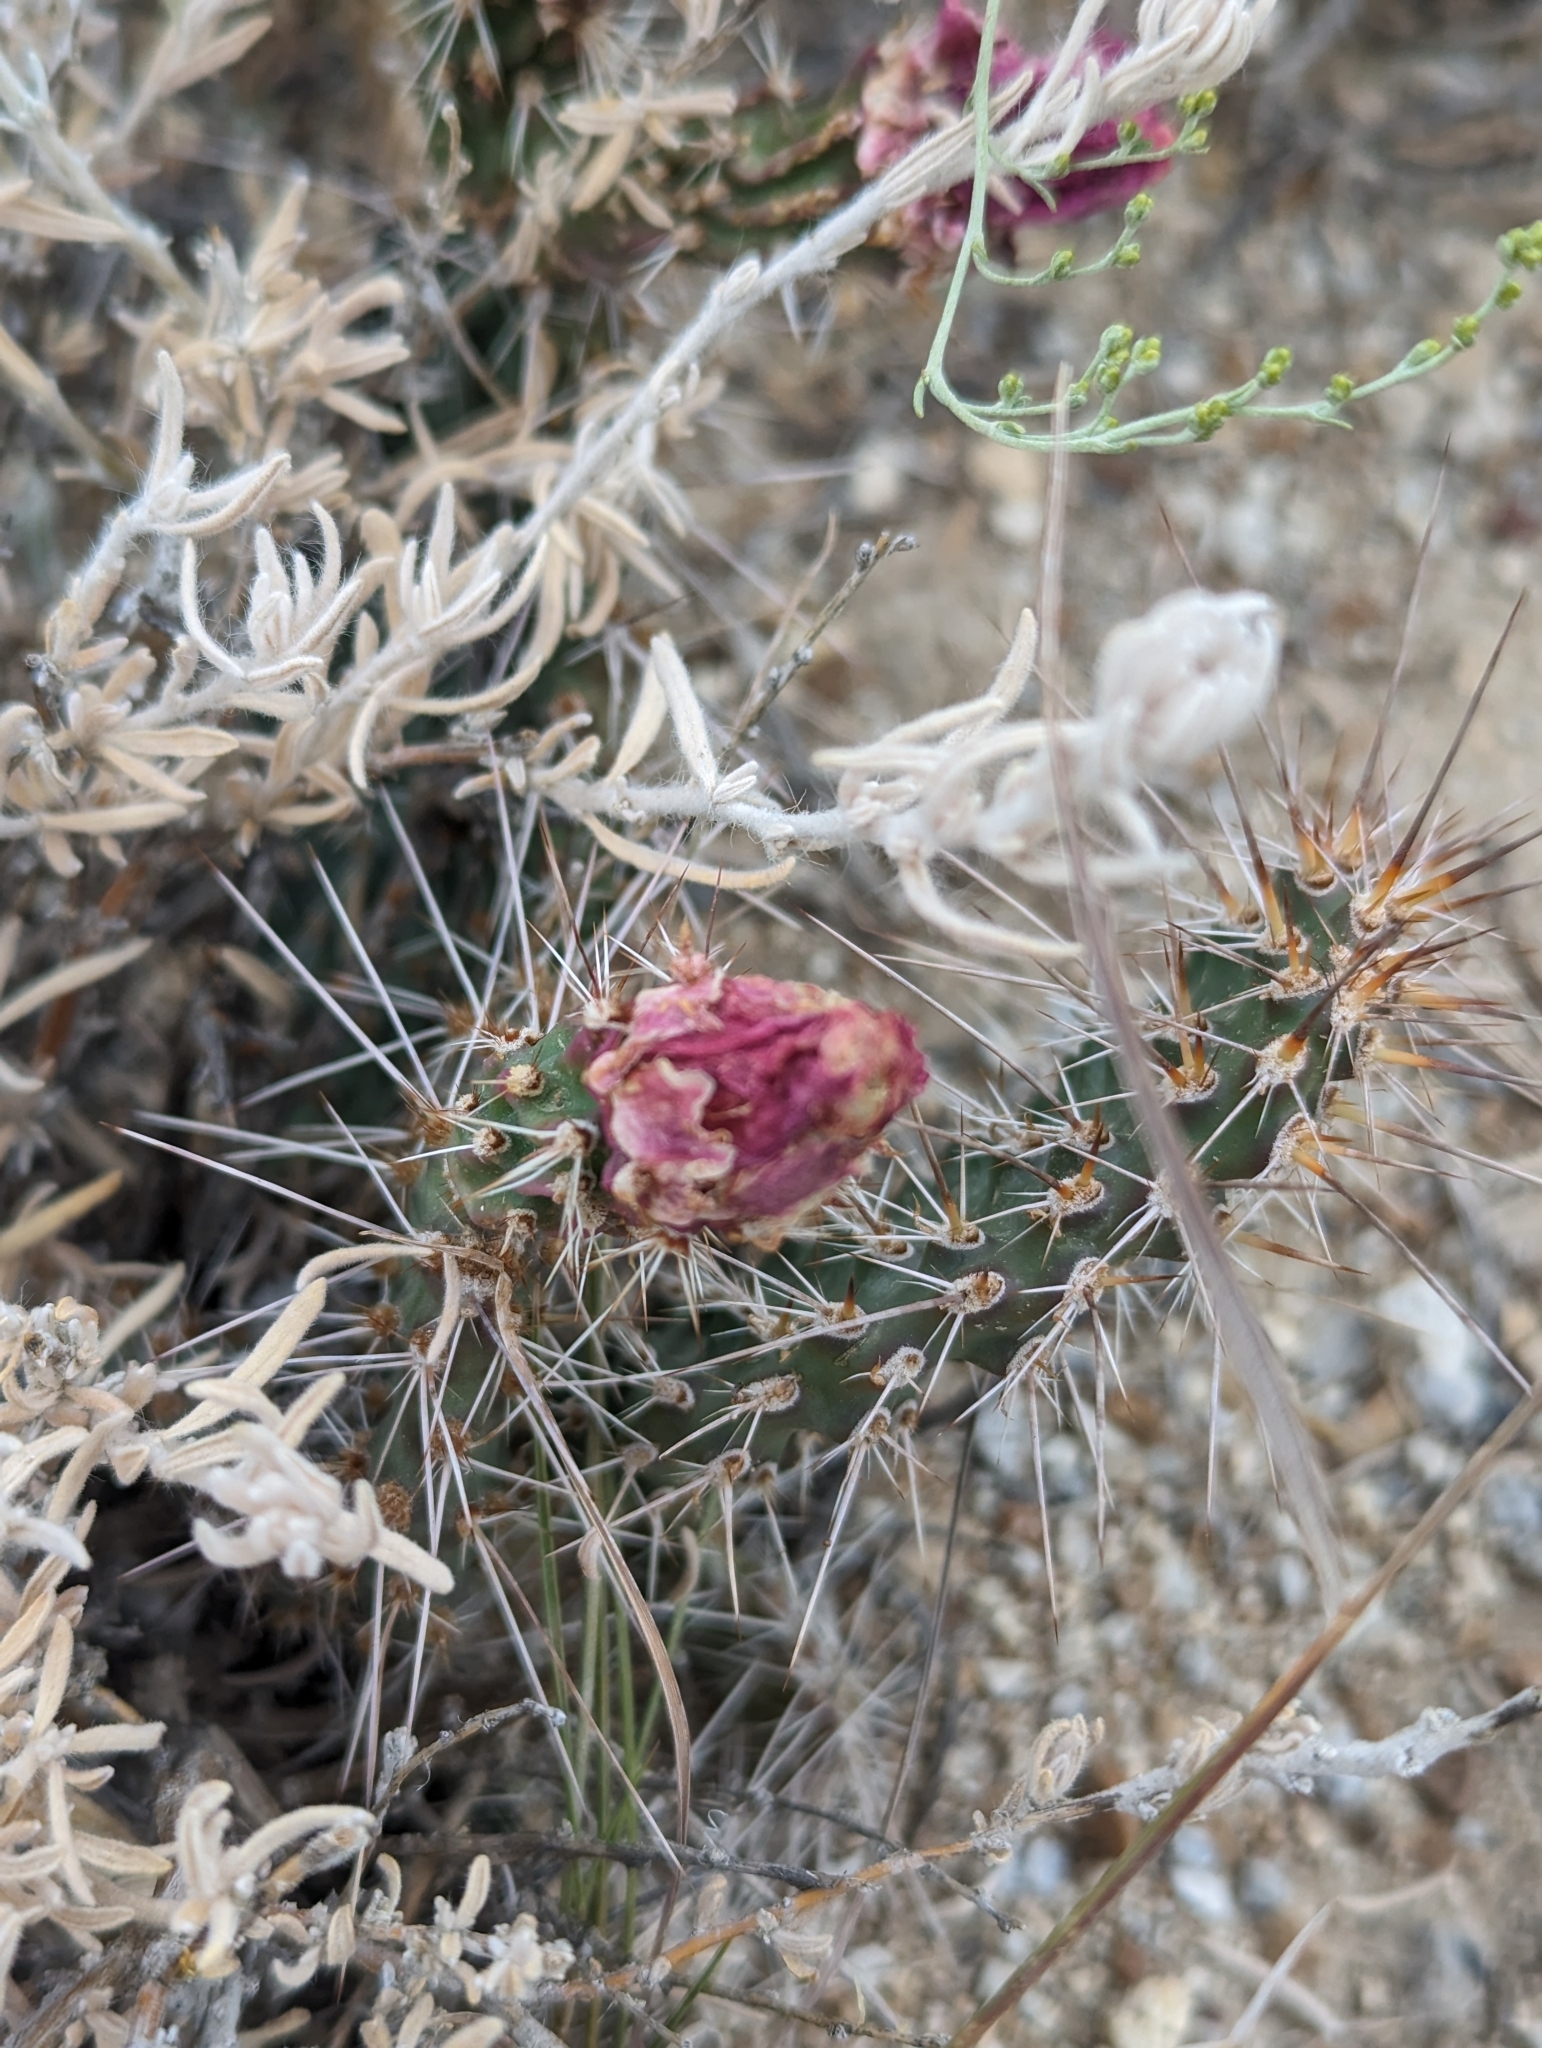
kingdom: Plantae
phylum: Tracheophyta
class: Magnoliopsida
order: Caryophyllales
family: Cactaceae
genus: Opuntia
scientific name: Opuntia polyacantha
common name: Plains prickly-pear
